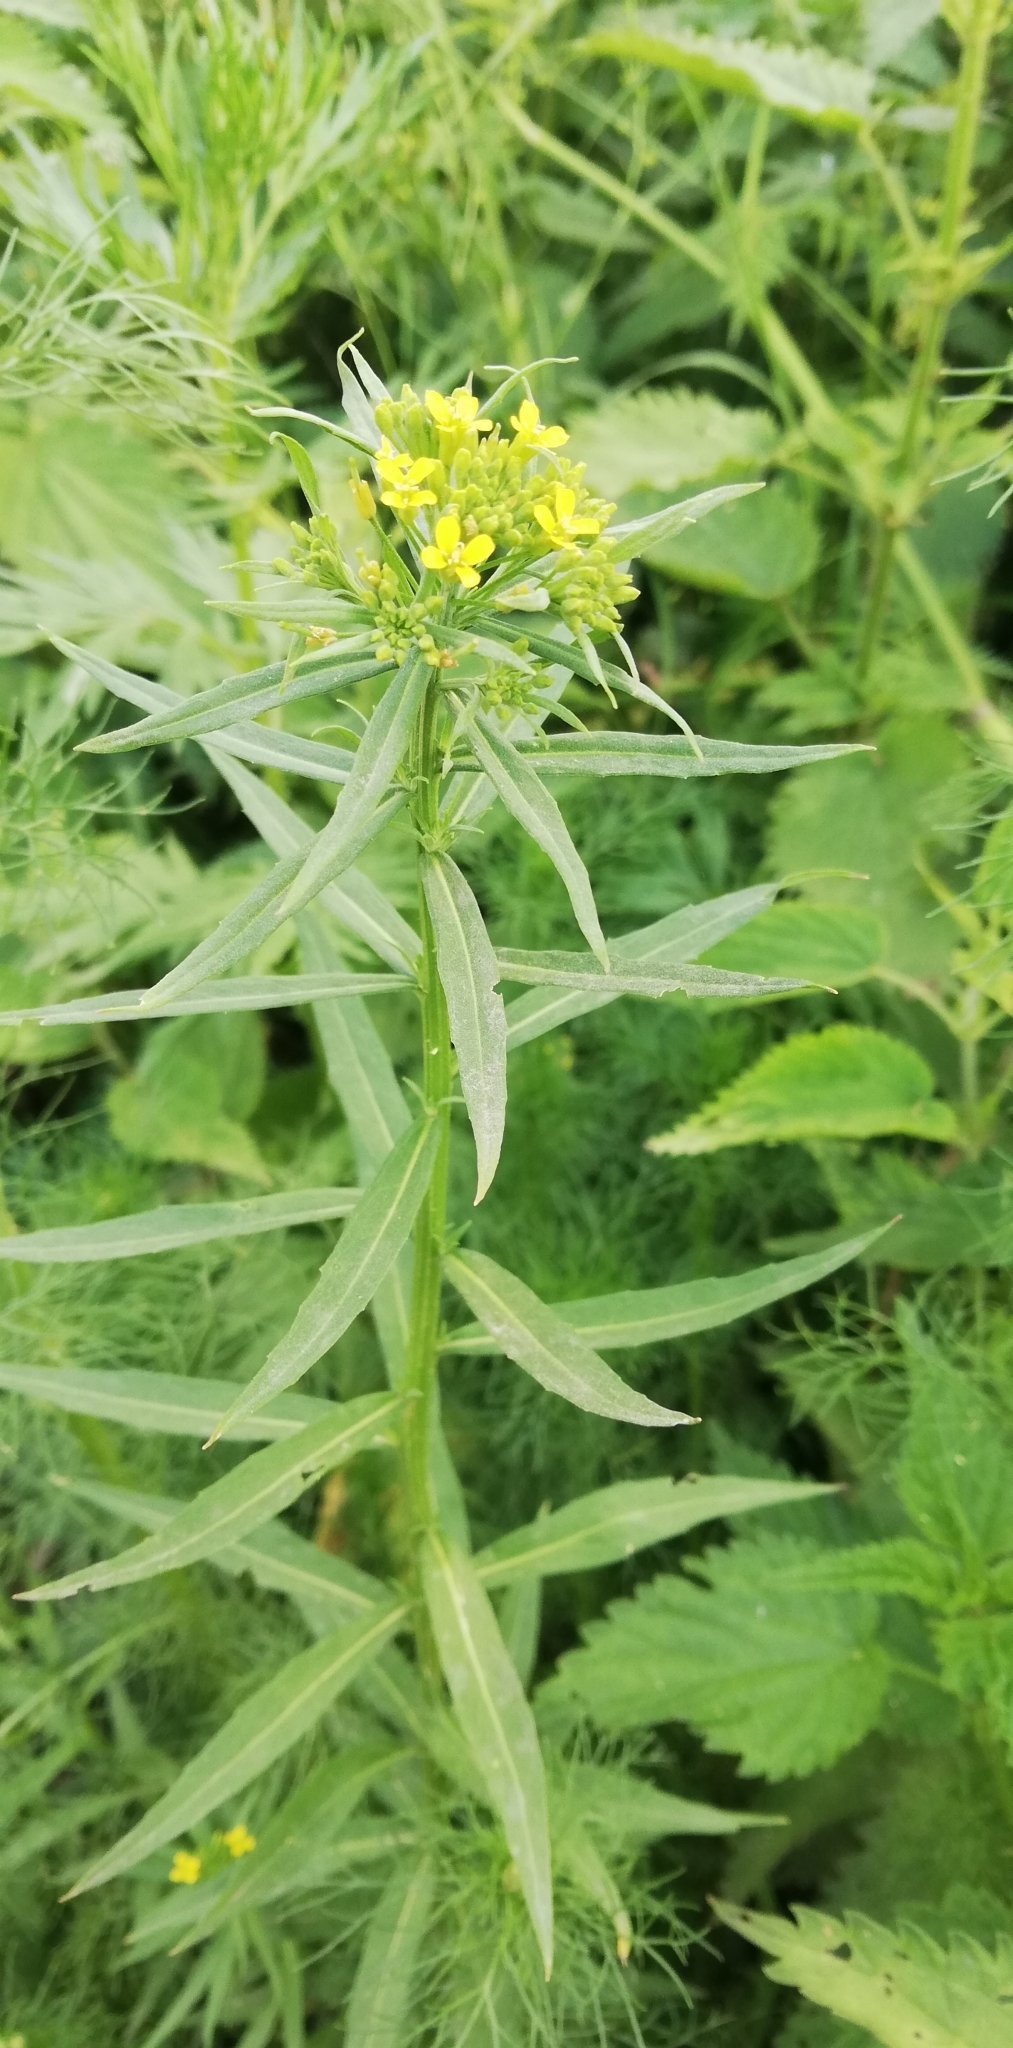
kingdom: Plantae
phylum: Tracheophyta
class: Magnoliopsida
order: Brassicales
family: Brassicaceae
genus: Erysimum
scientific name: Erysimum cheiranthoides
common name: Treacle mustard
